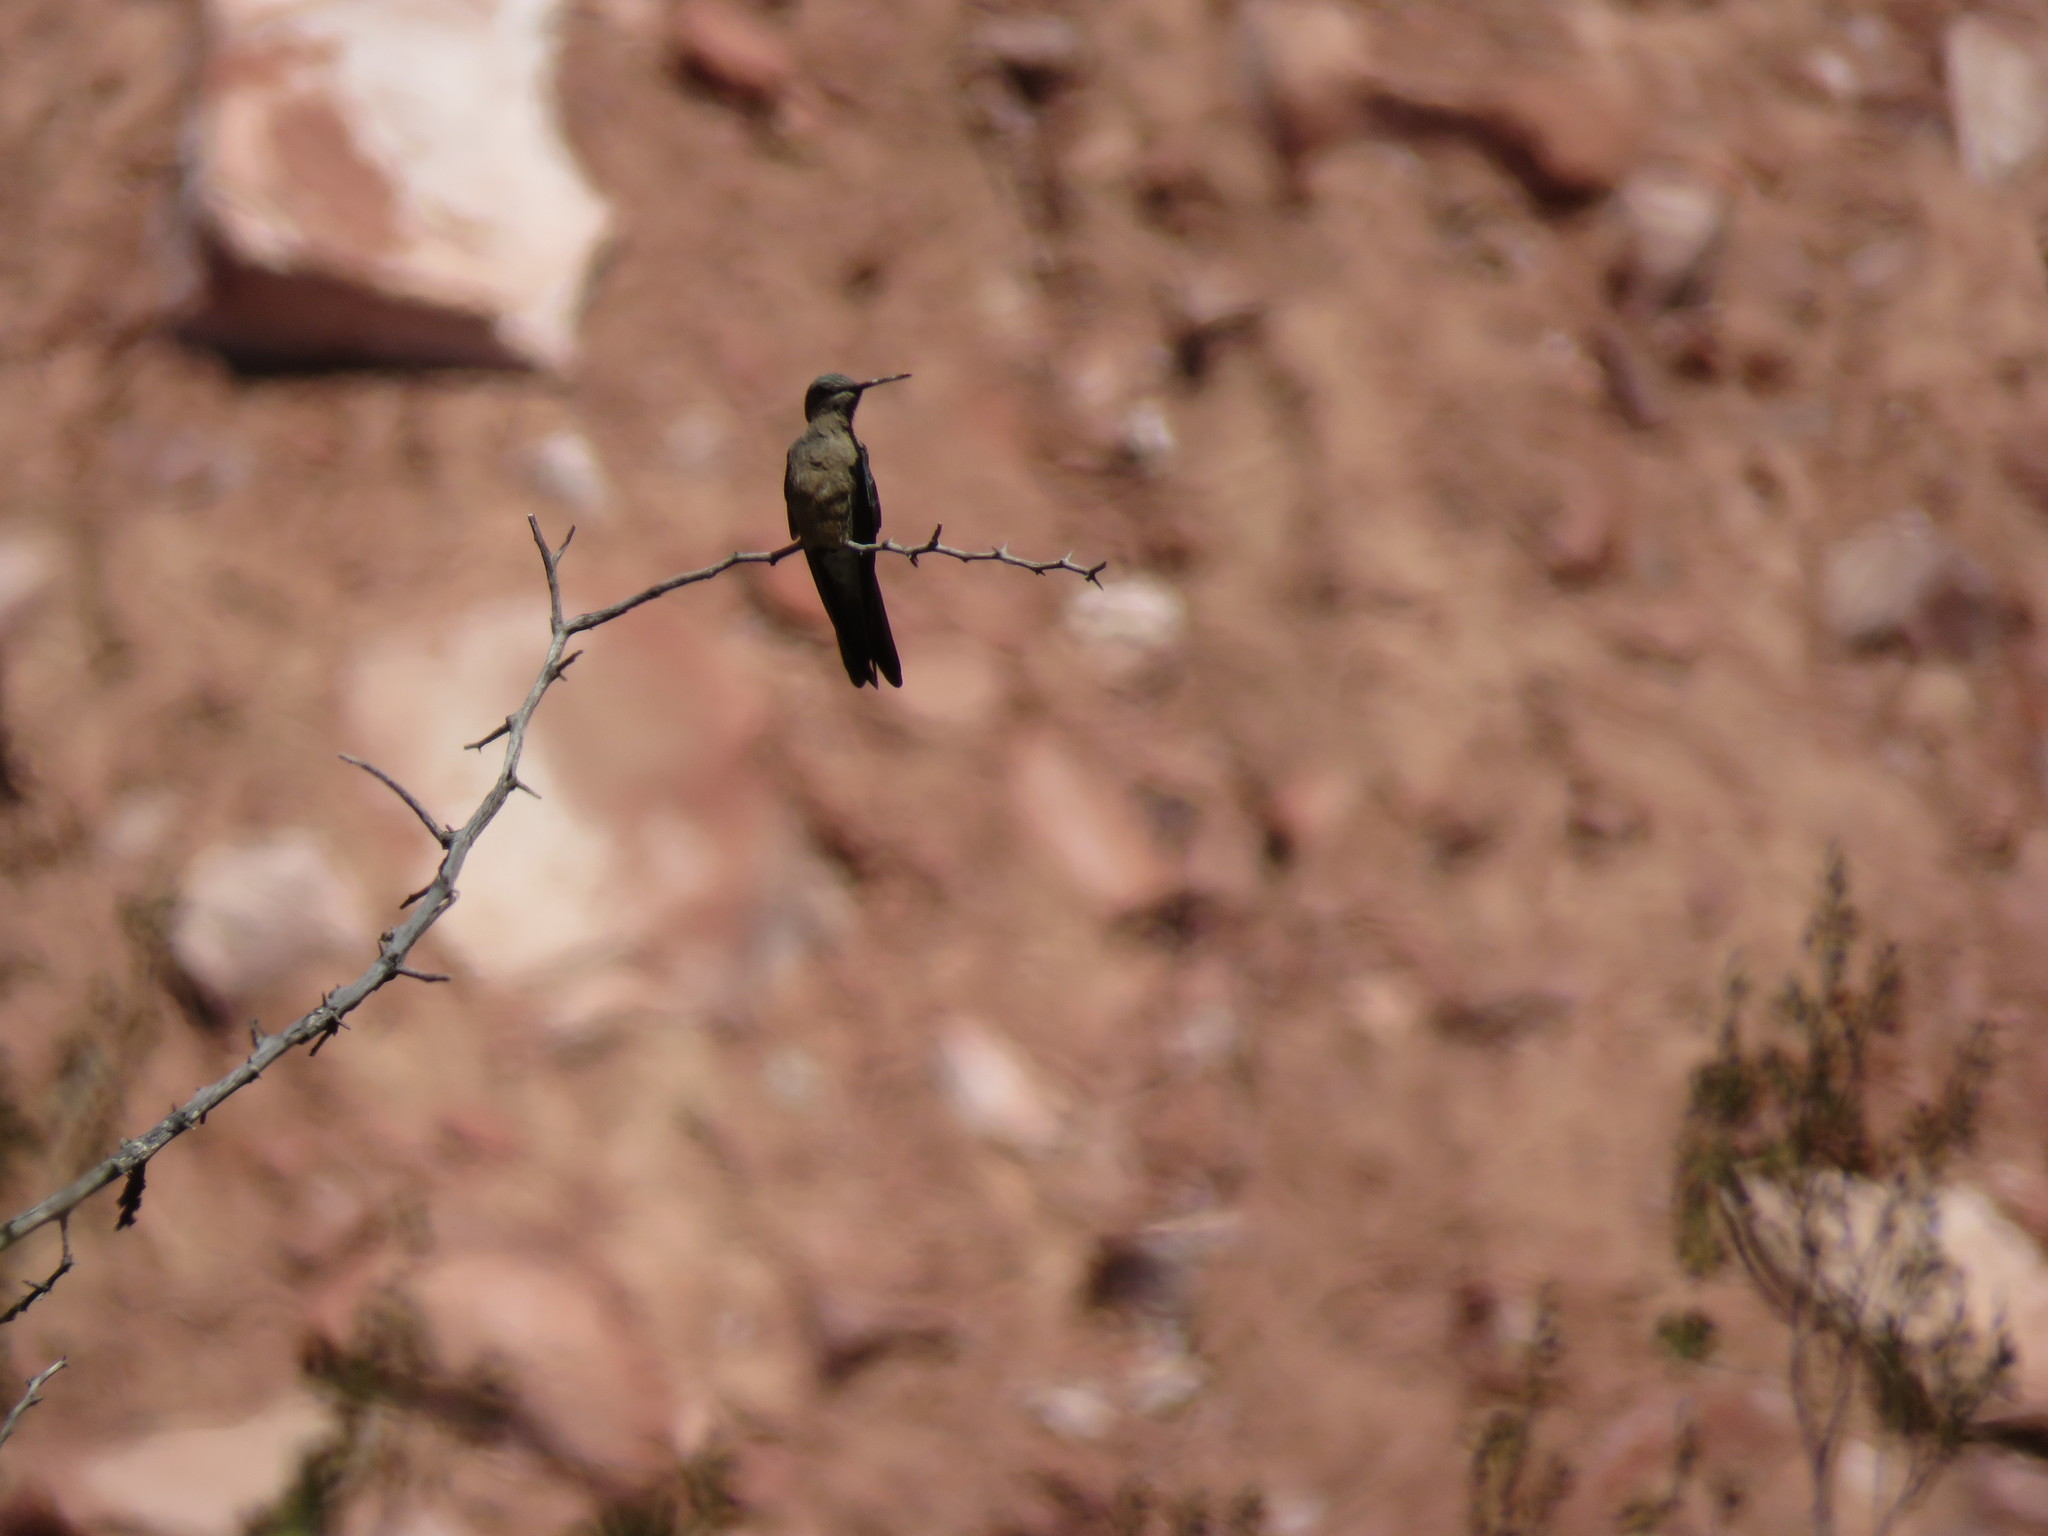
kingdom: Animalia
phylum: Chordata
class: Aves
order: Apodiformes
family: Trochilidae
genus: Patagona
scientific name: Patagona gigas
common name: Giant hummingbird
